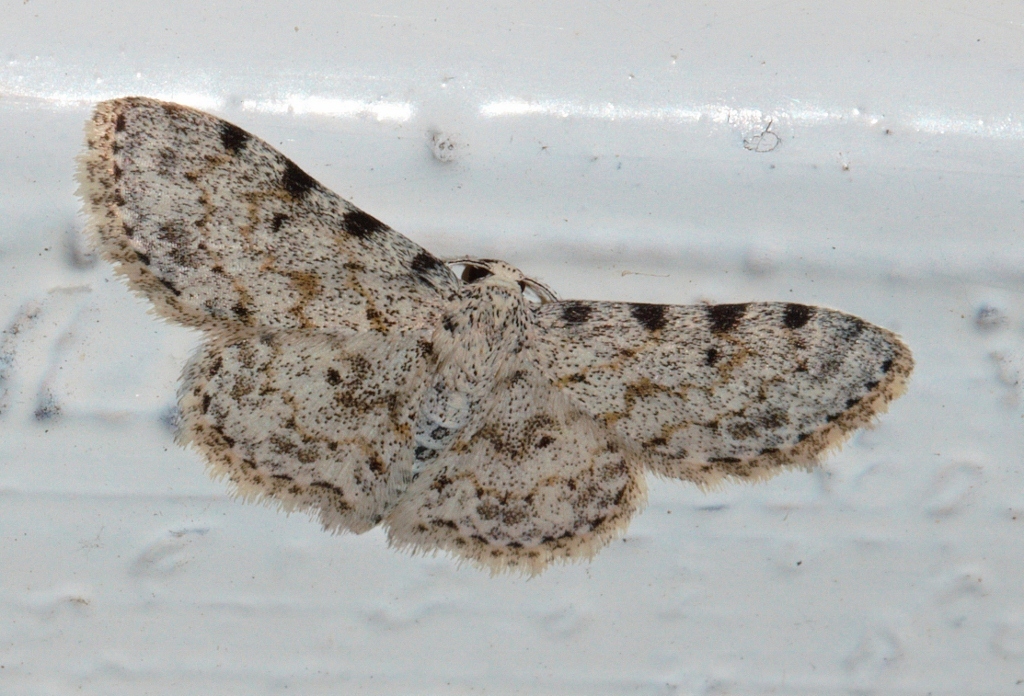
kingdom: Animalia
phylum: Arthropoda
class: Insecta
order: Lepidoptera
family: Geometridae
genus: Scopula
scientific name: Scopula nigrinotata
